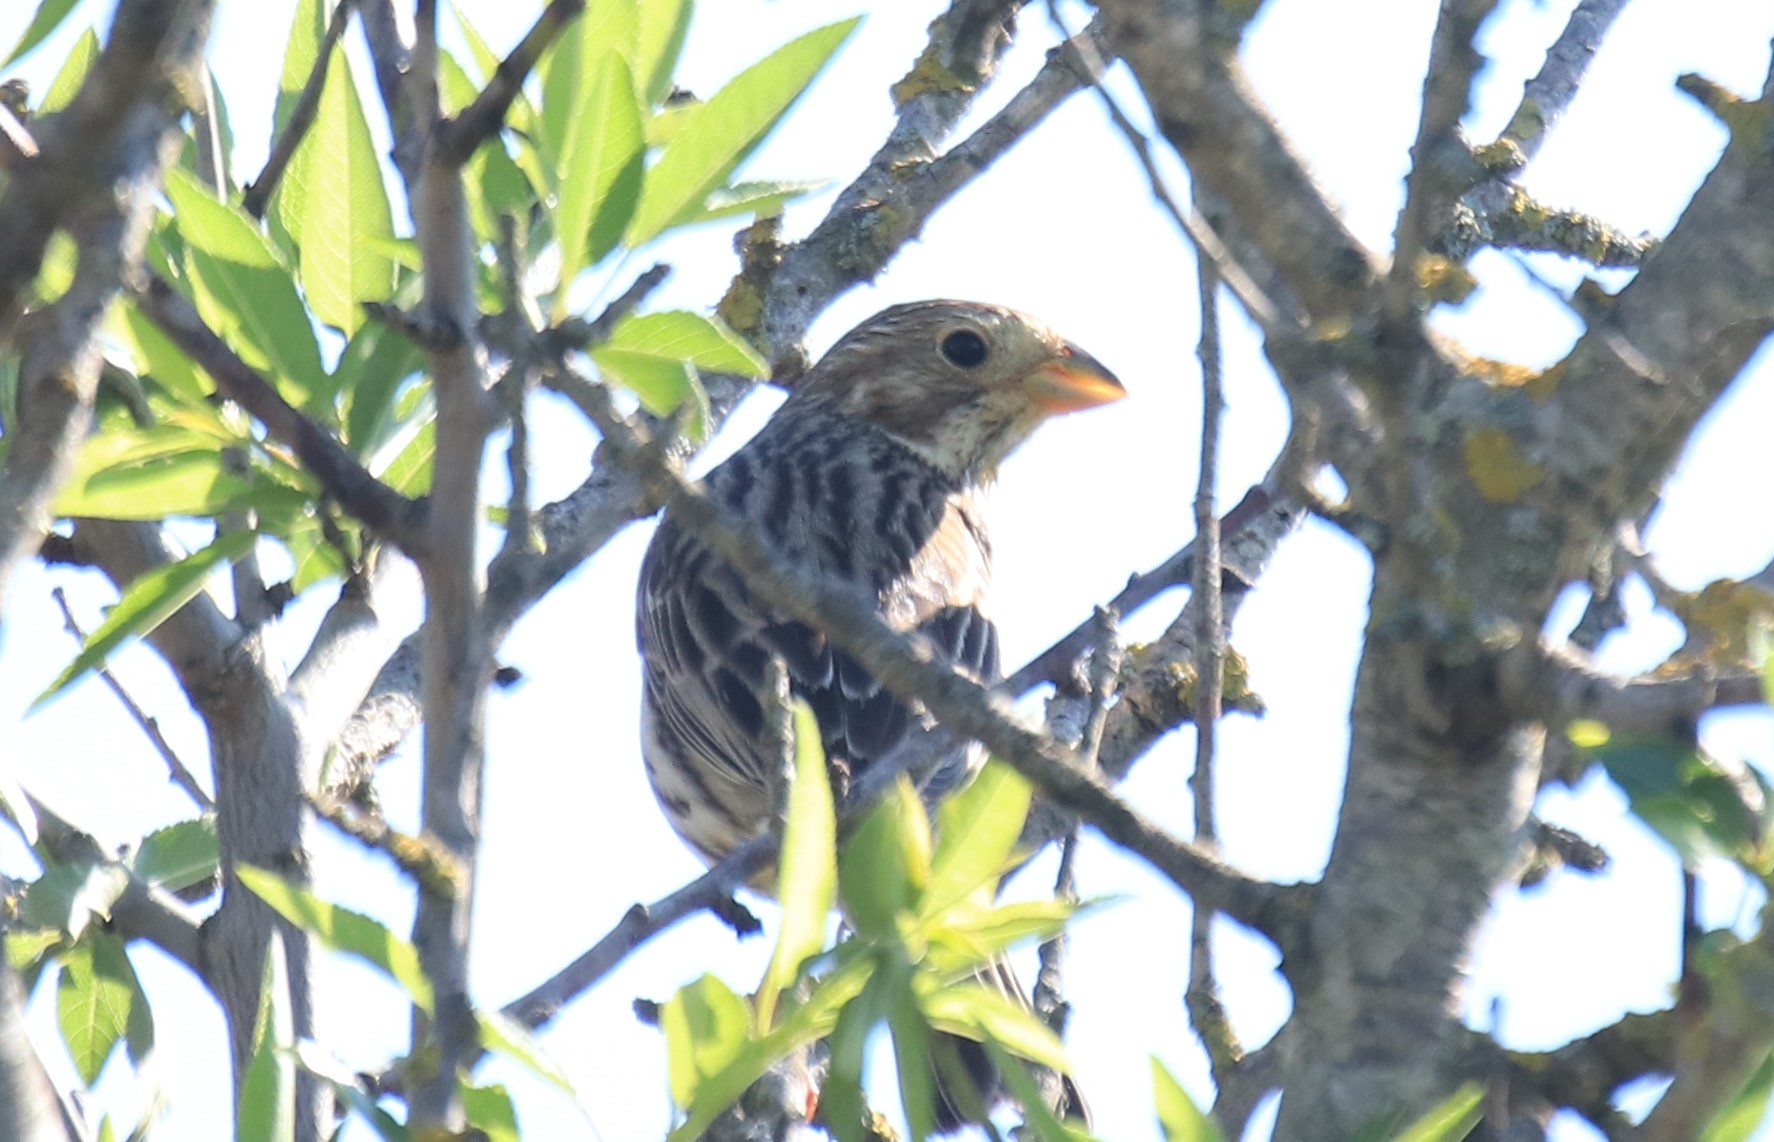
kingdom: Animalia
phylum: Chordata
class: Aves
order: Passeriformes
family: Emberizidae
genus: Emberiza
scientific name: Emberiza calandra
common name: Corn bunting
